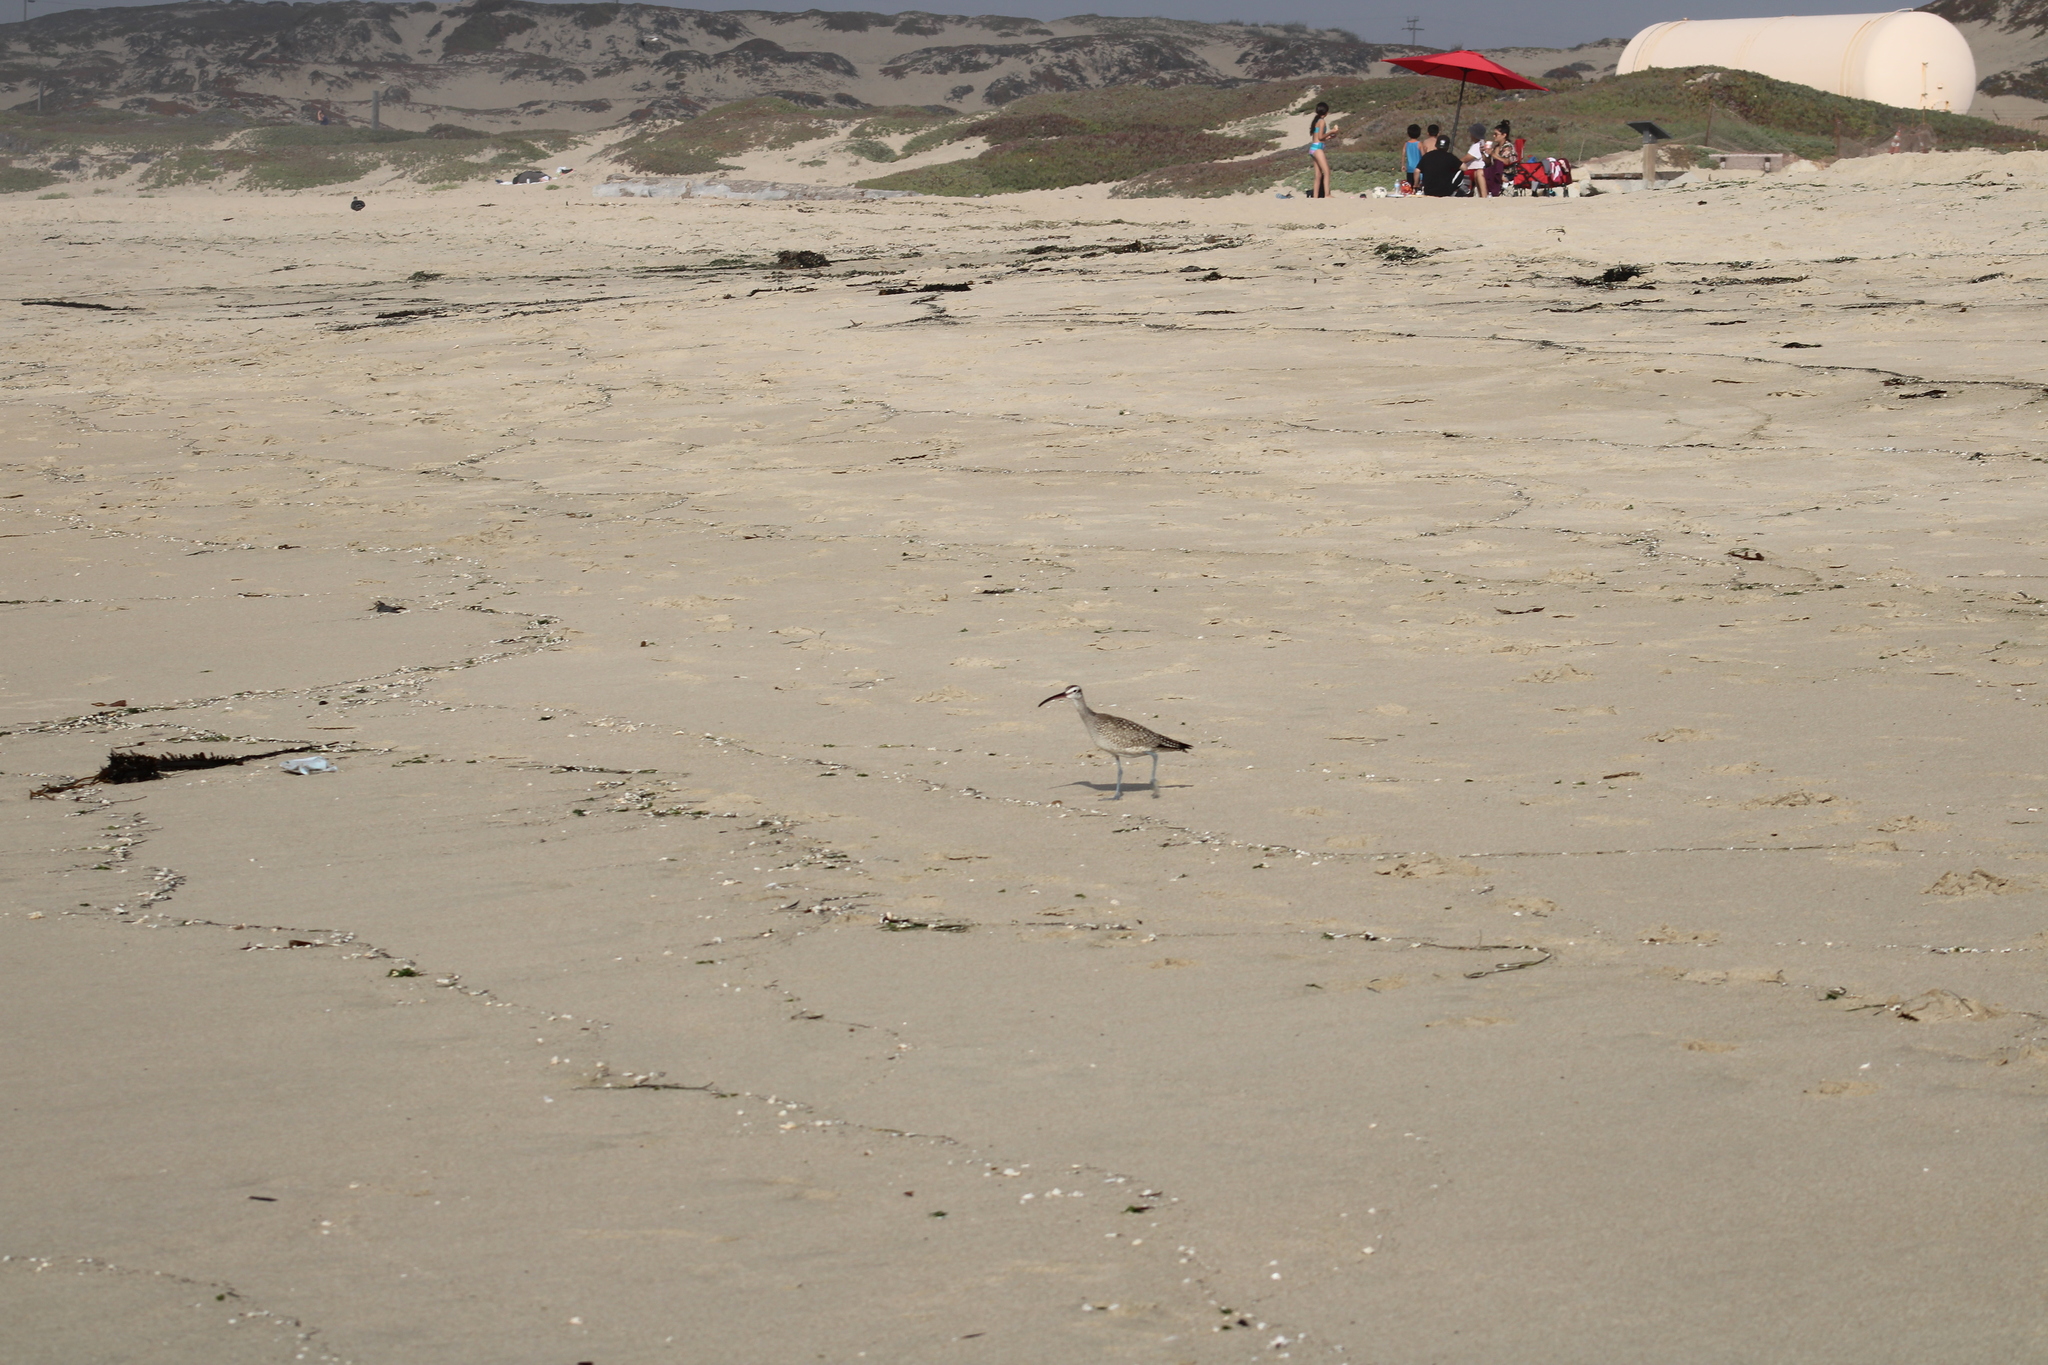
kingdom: Animalia
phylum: Chordata
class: Aves
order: Charadriiformes
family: Scolopacidae
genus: Numenius
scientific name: Numenius phaeopus
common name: Whimbrel
